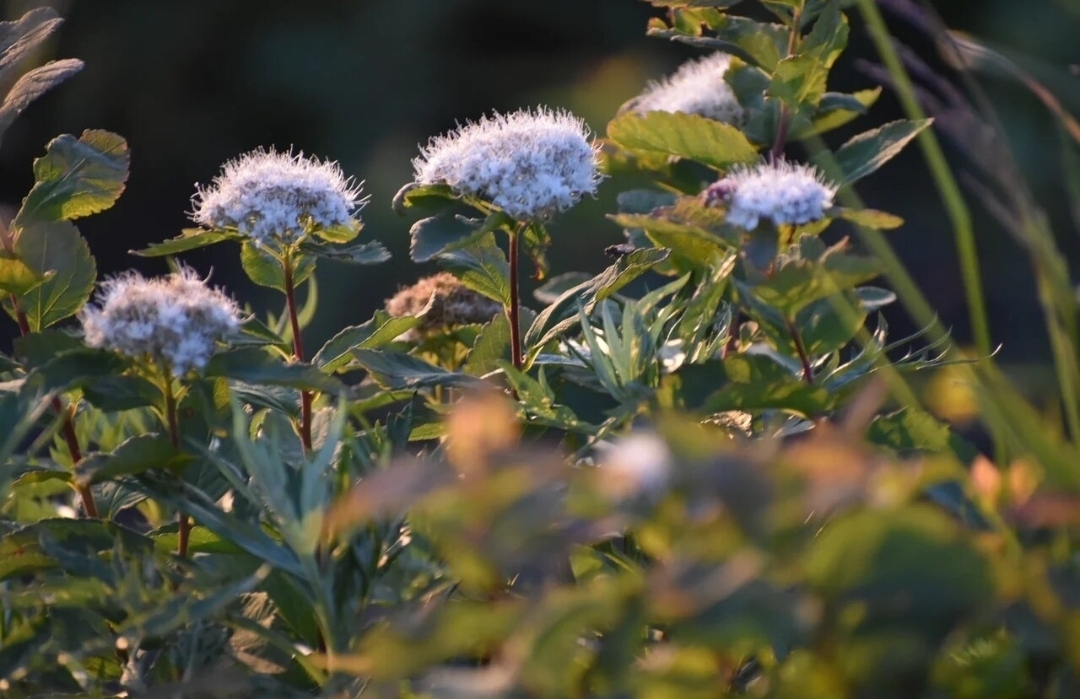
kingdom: Plantae
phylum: Tracheophyta
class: Magnoliopsida
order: Rosales
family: Rosaceae
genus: Spiraea
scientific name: Spiraea betulifolia
